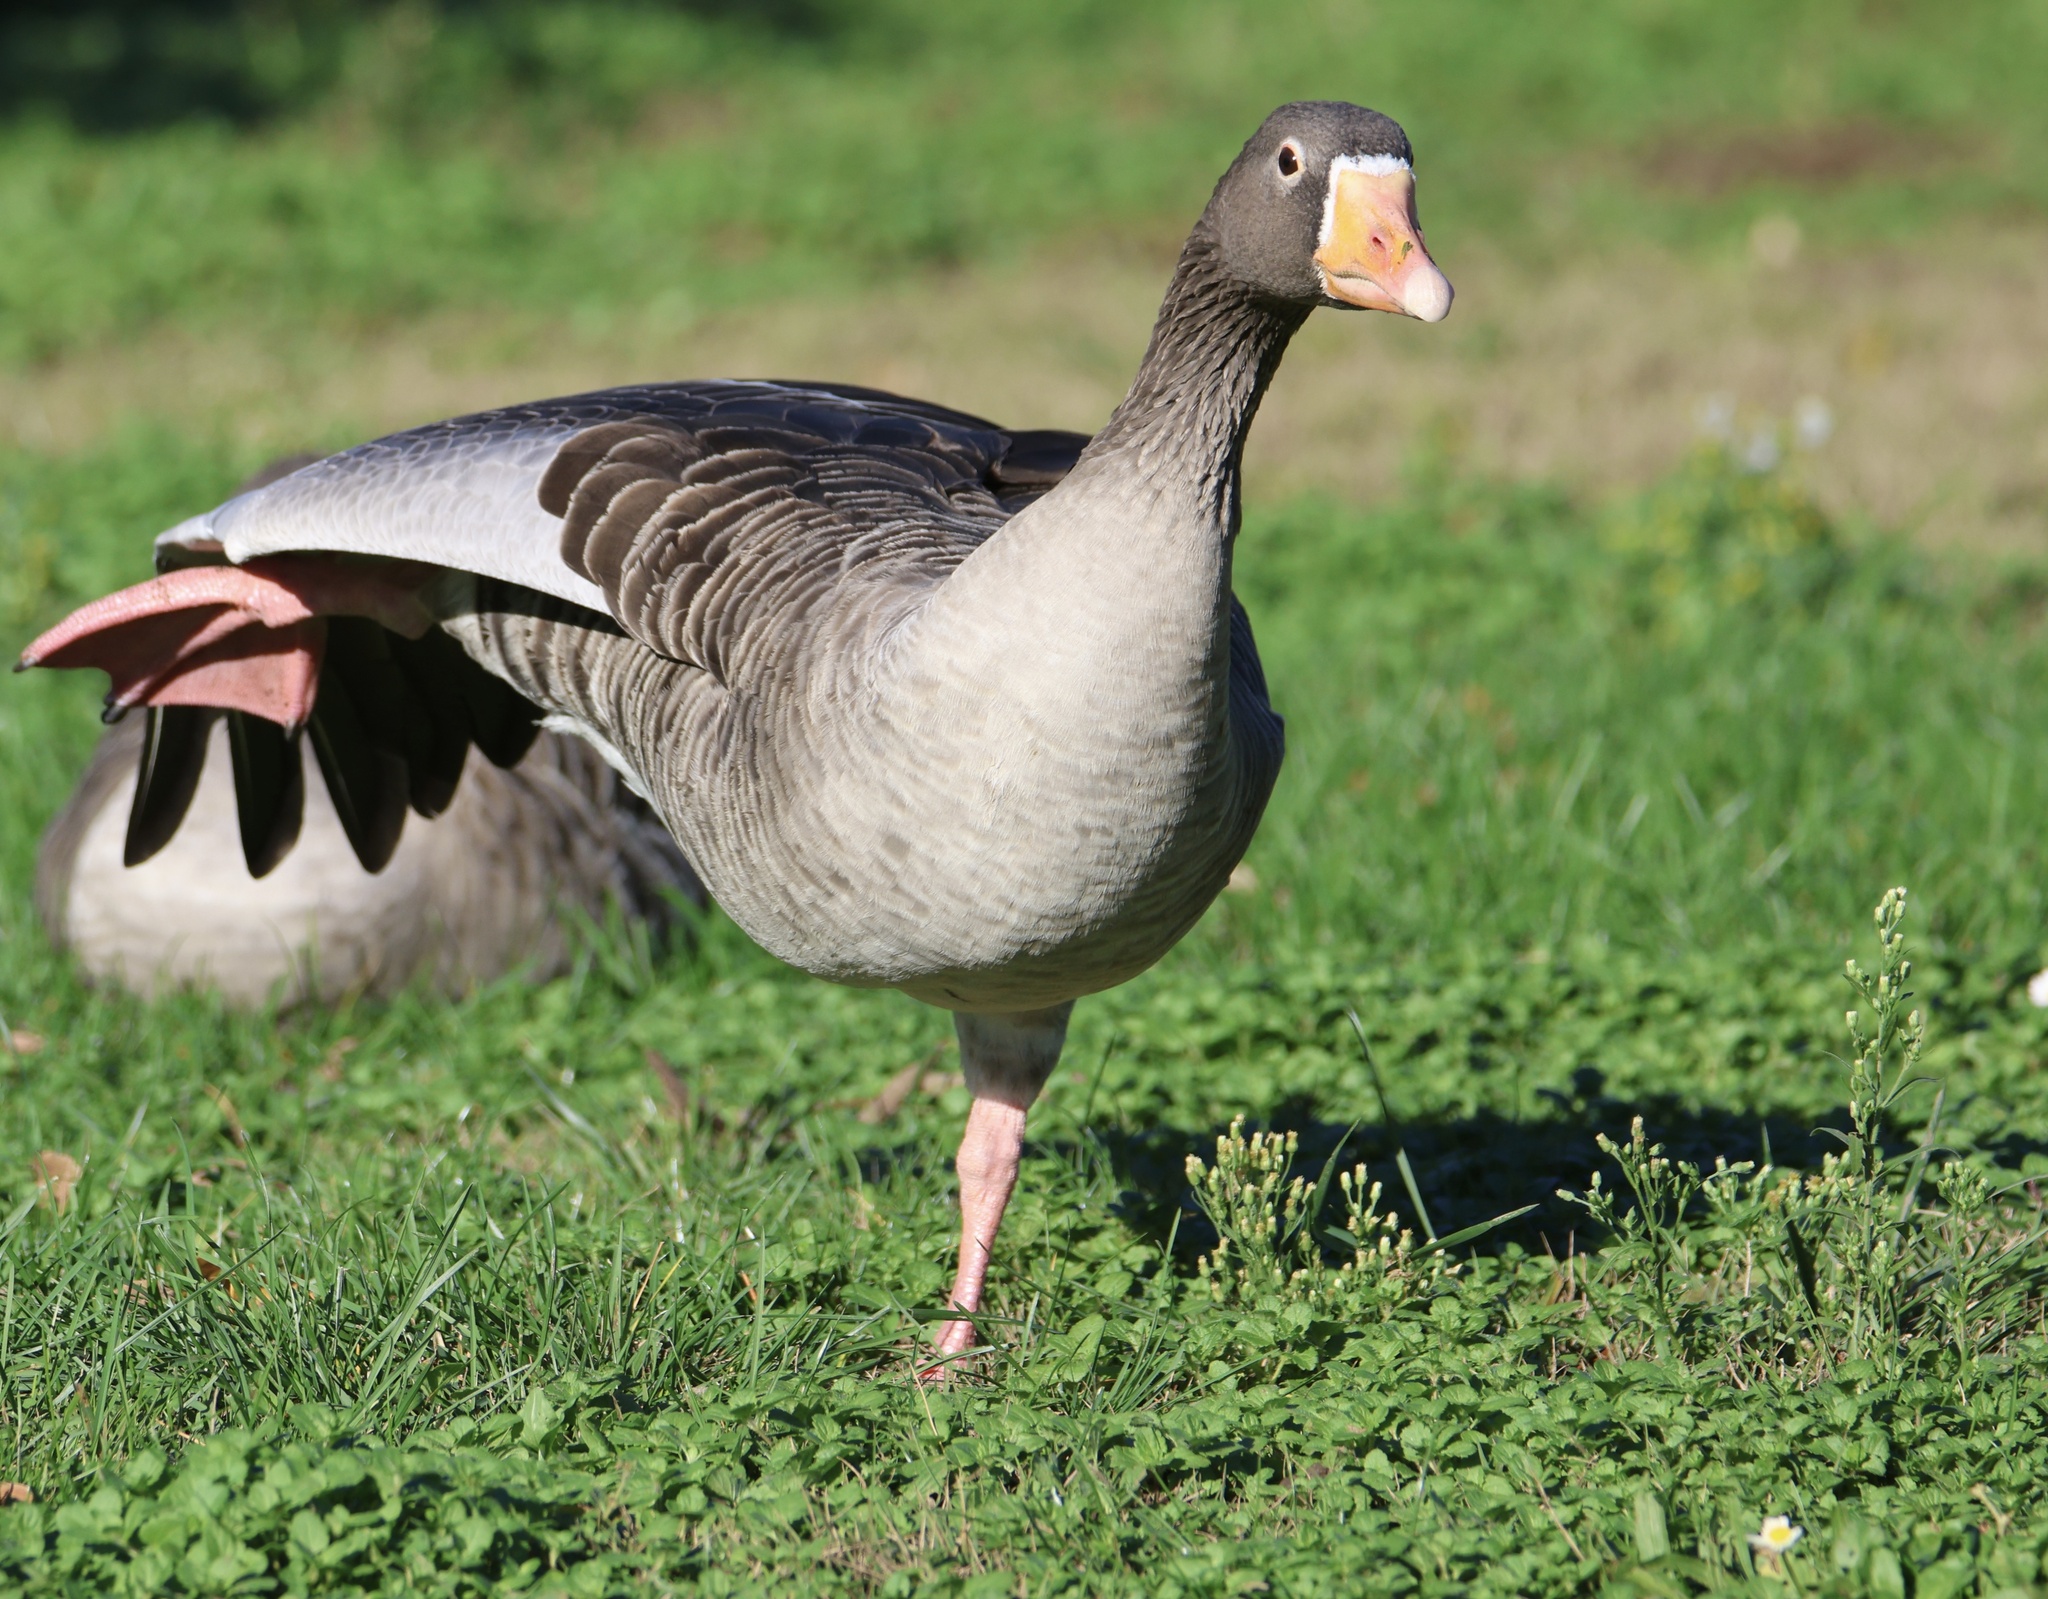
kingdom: Animalia
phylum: Chordata
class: Aves
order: Anseriformes
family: Anatidae
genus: Anser
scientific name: Anser anser
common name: Greylag goose
